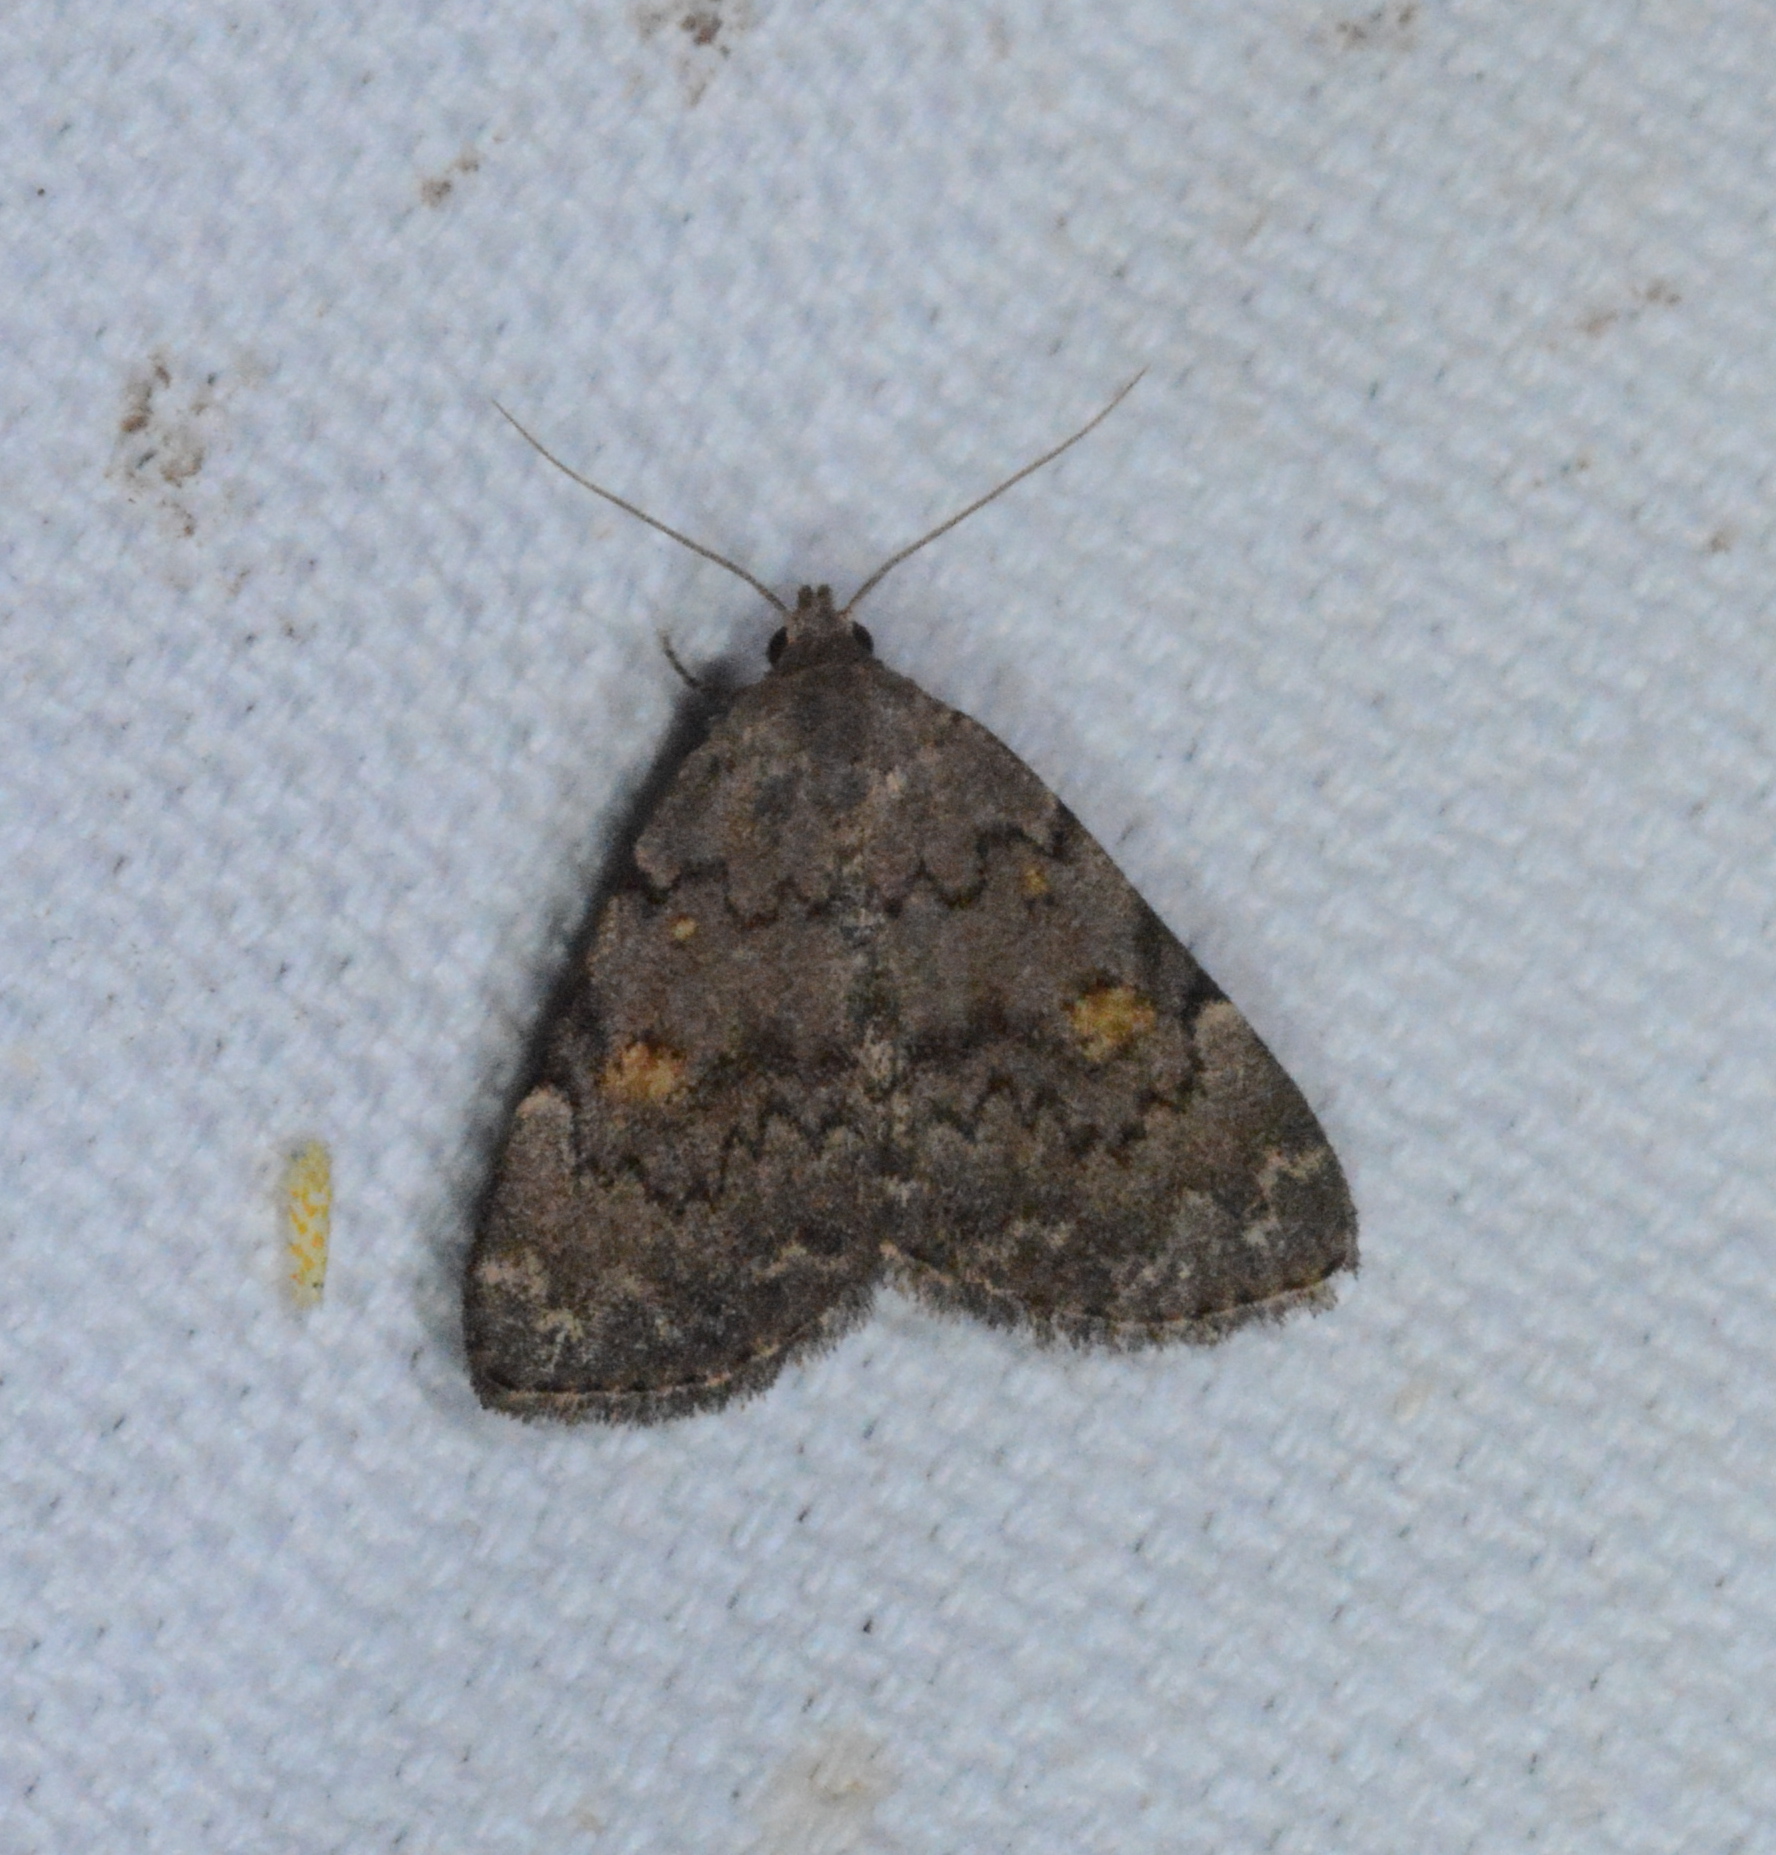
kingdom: Animalia
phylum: Arthropoda
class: Insecta
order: Lepidoptera
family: Erebidae
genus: Idia
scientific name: Idia aemula
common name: Common idia moth
